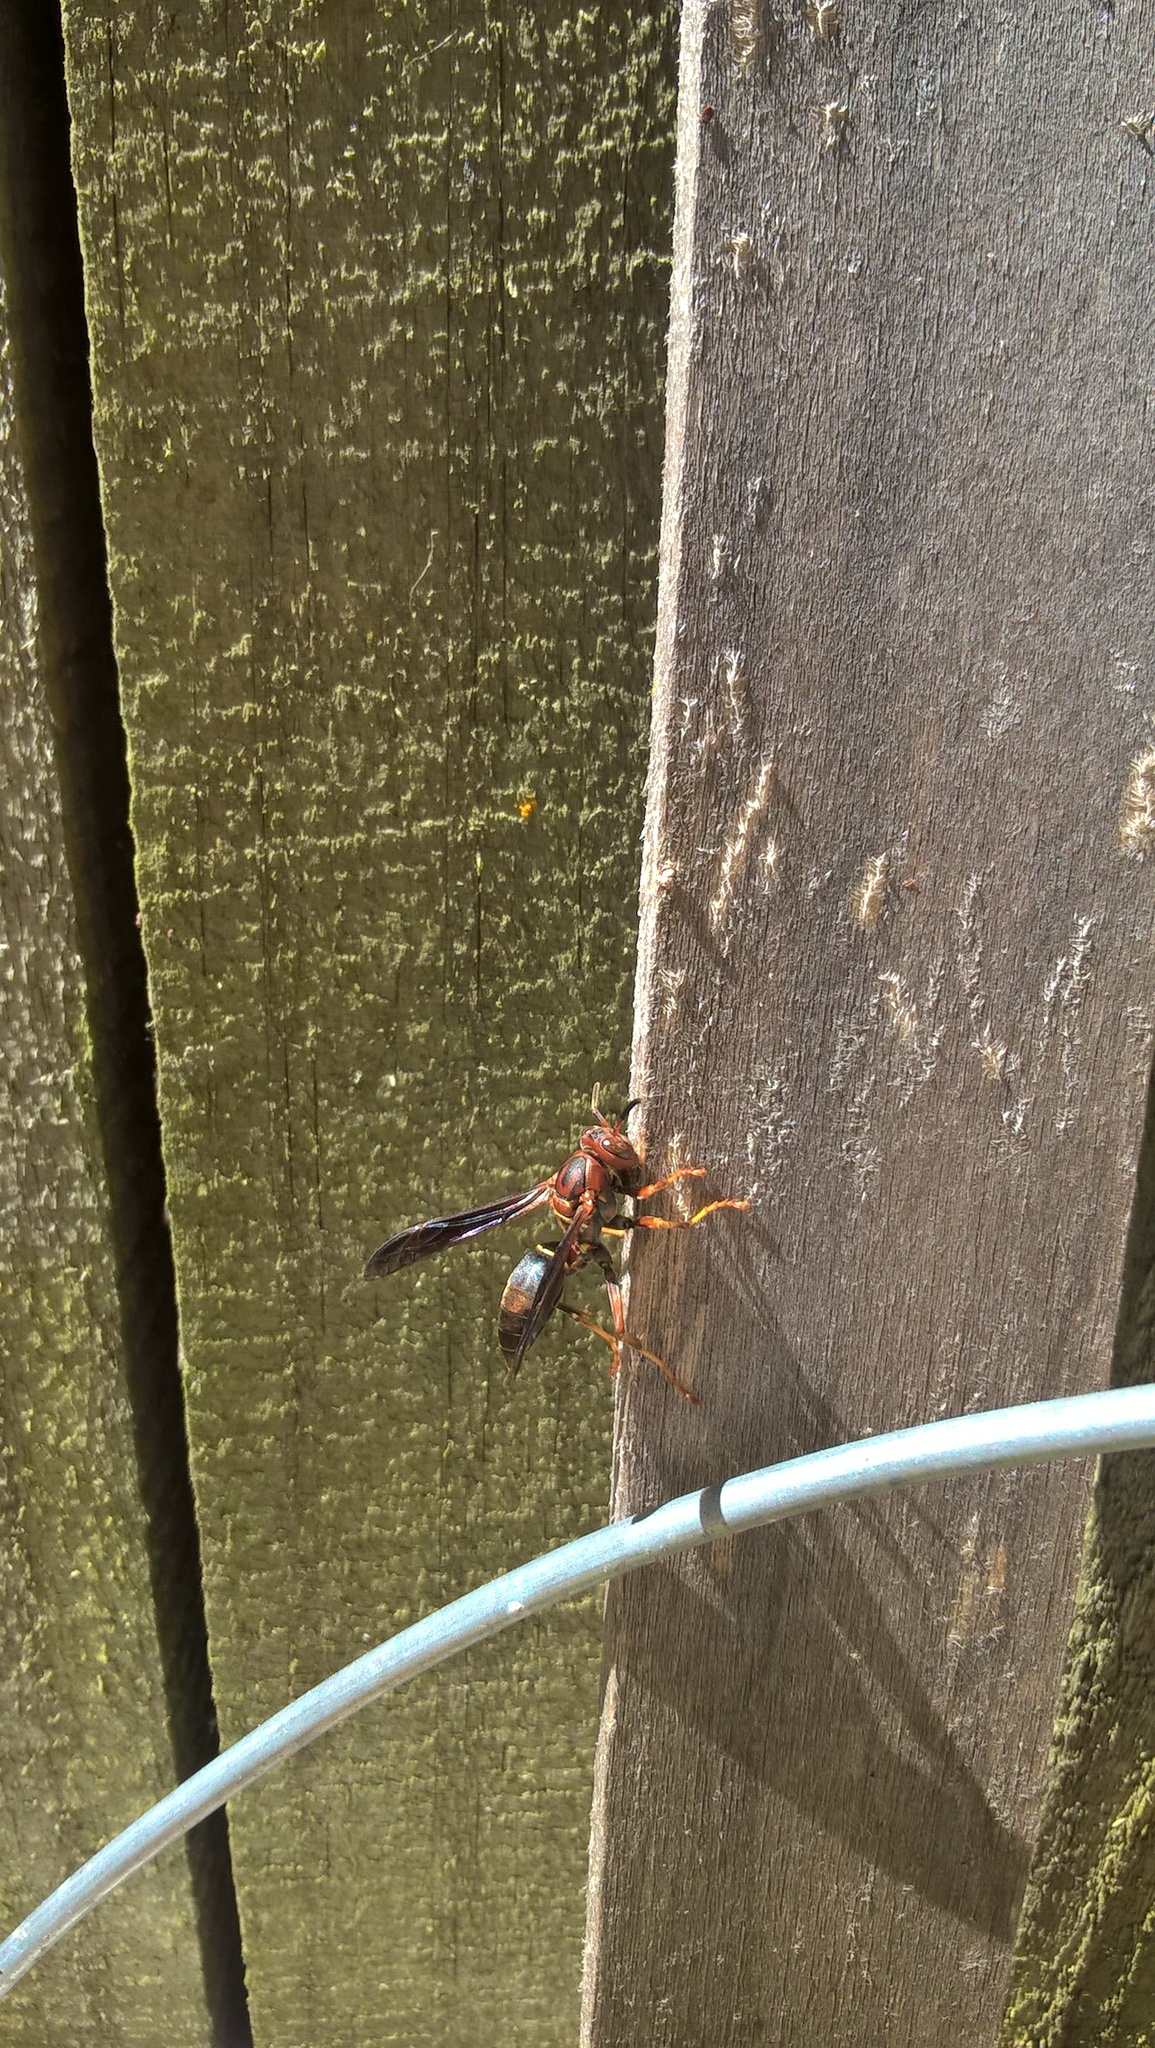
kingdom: Animalia
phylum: Arthropoda
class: Insecta
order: Hymenoptera
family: Eumenidae
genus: Polistes
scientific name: Polistes metricus
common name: Metric paper wasp
